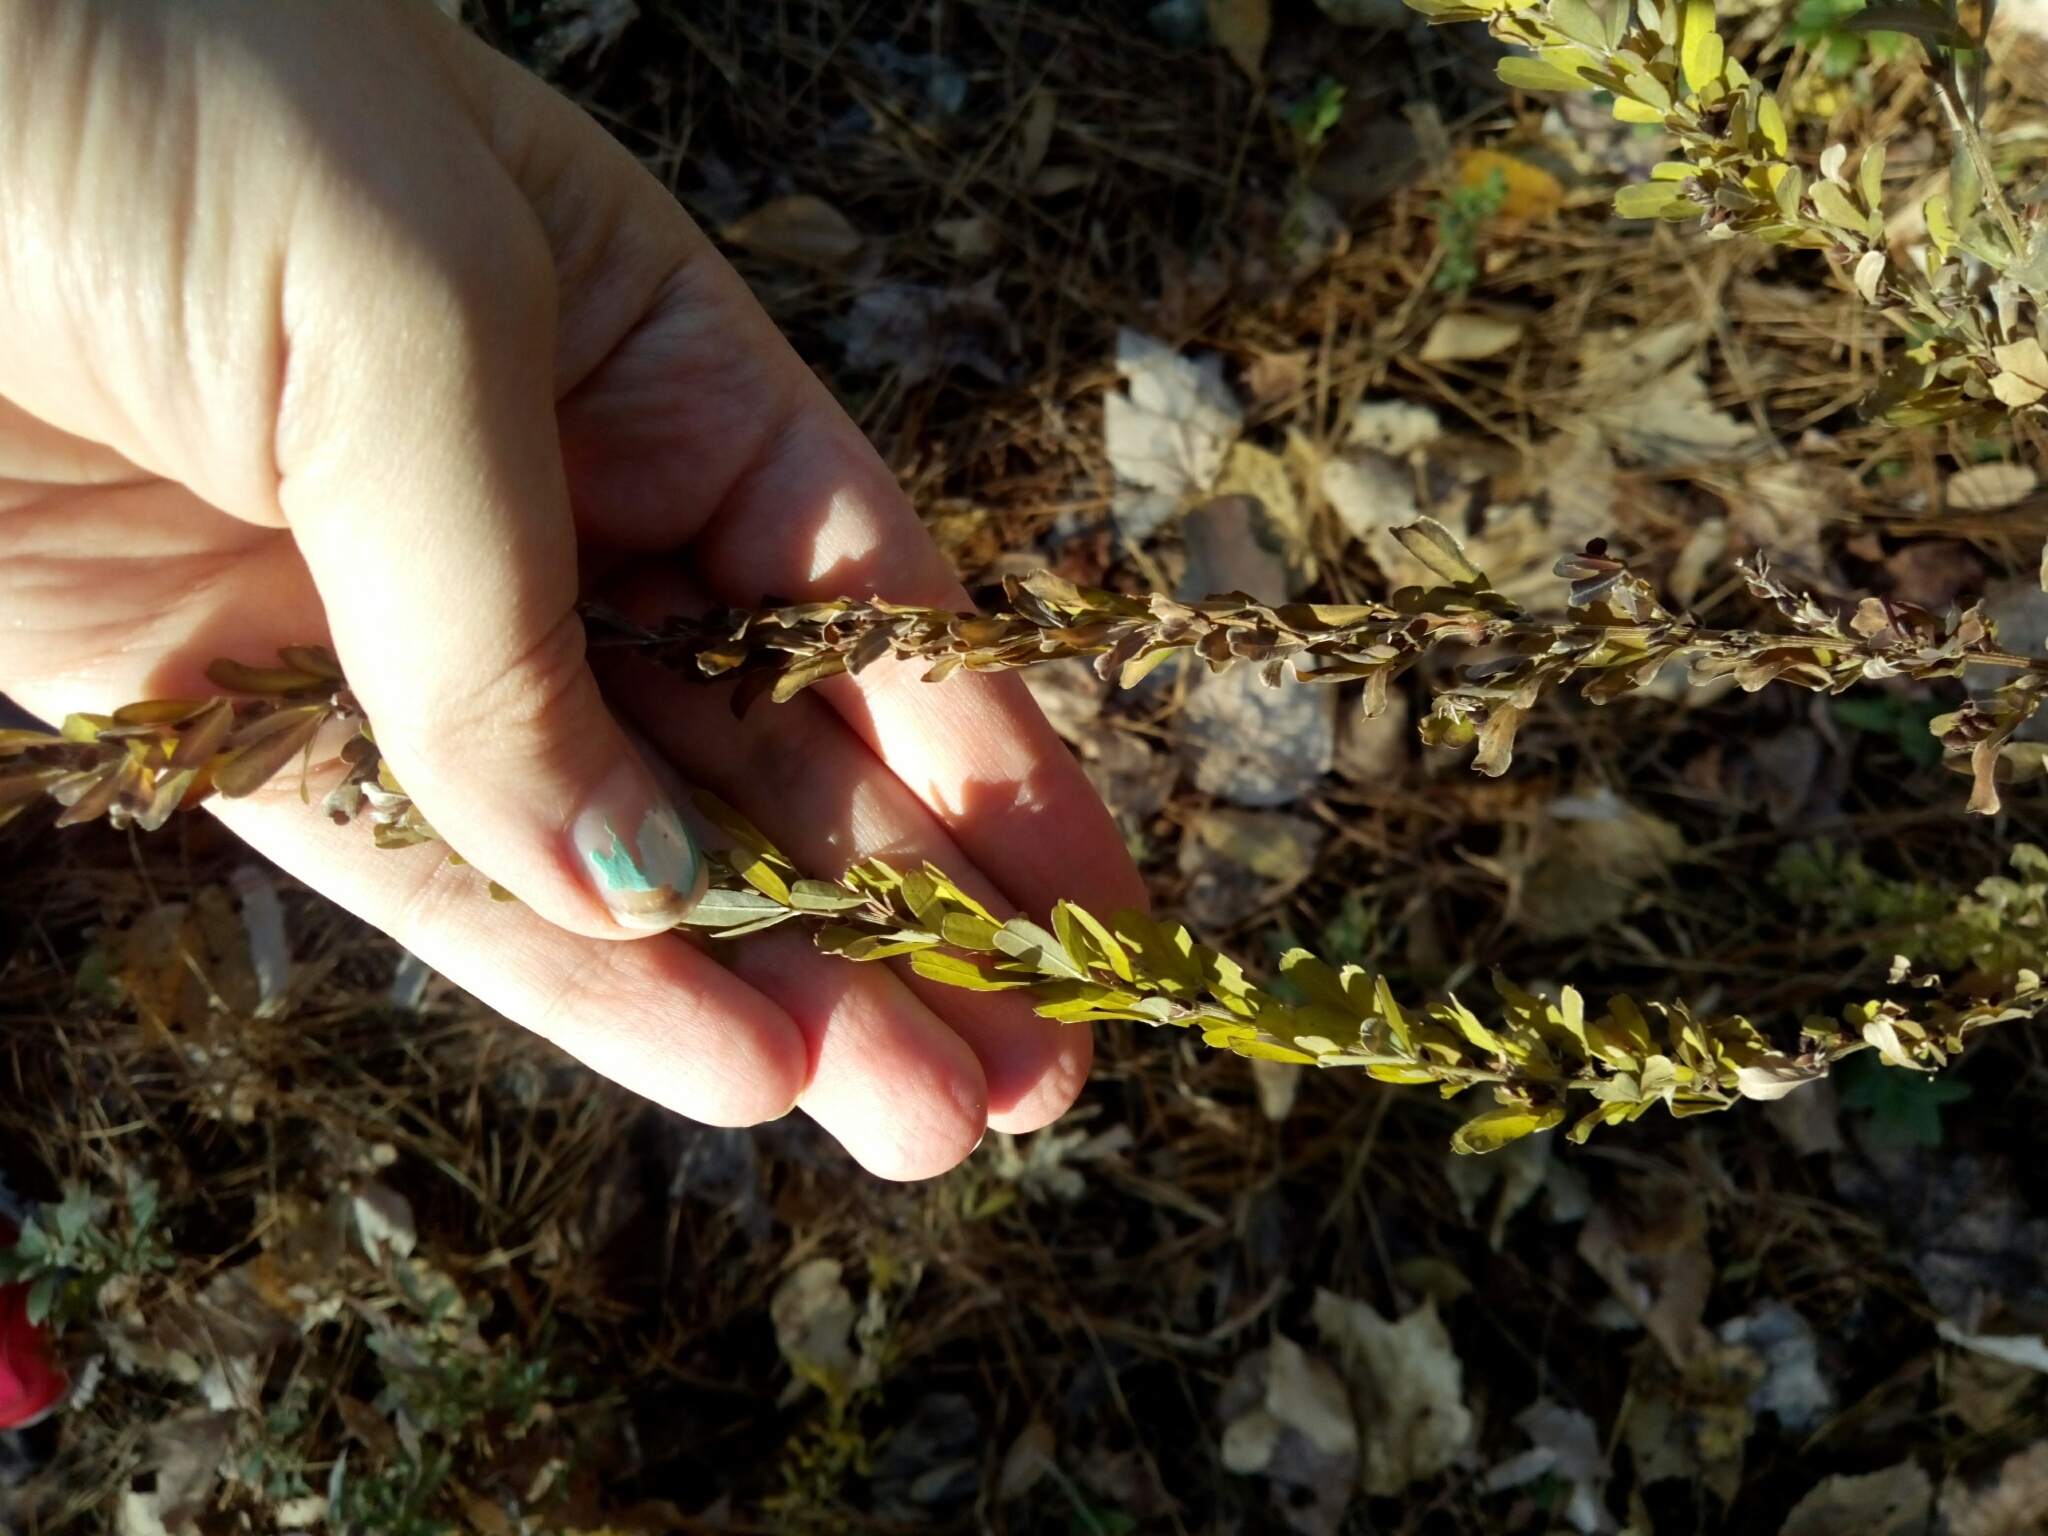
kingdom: Plantae
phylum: Tracheophyta
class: Magnoliopsida
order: Fabales
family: Fabaceae
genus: Lespedeza
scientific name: Lespedeza cuneata
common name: Chinese bush-clover
